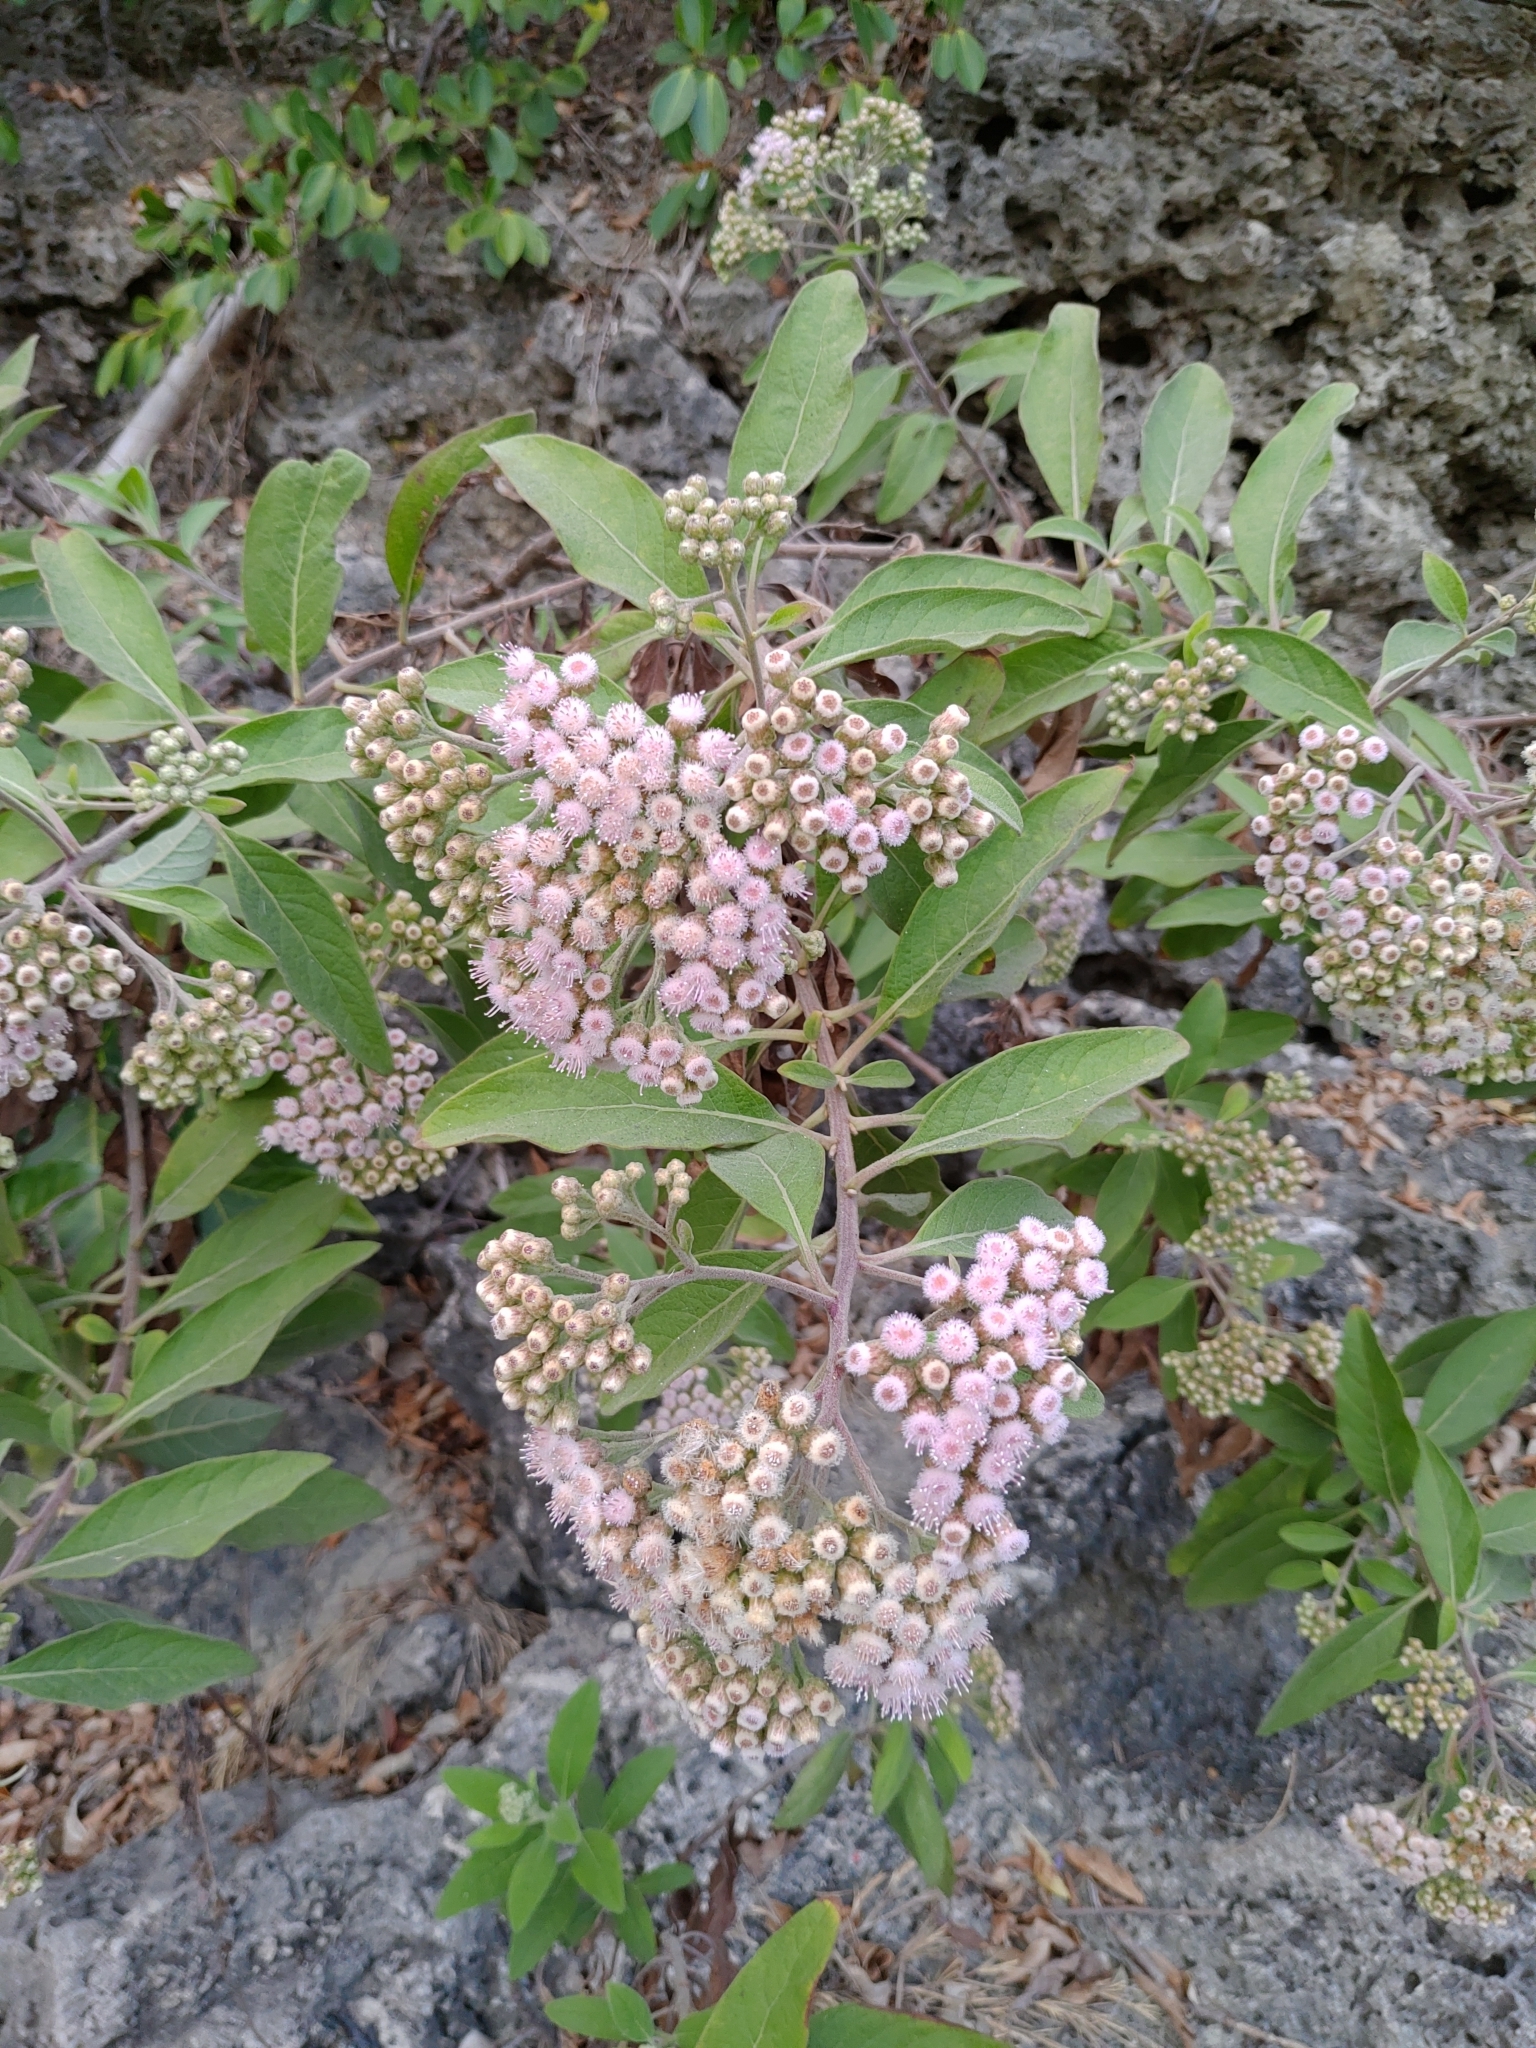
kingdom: Plantae
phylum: Tracheophyta
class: Magnoliopsida
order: Asterales
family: Asteraceae
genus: Pluchea
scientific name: Pluchea carolinensis
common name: Marsh fleabane
